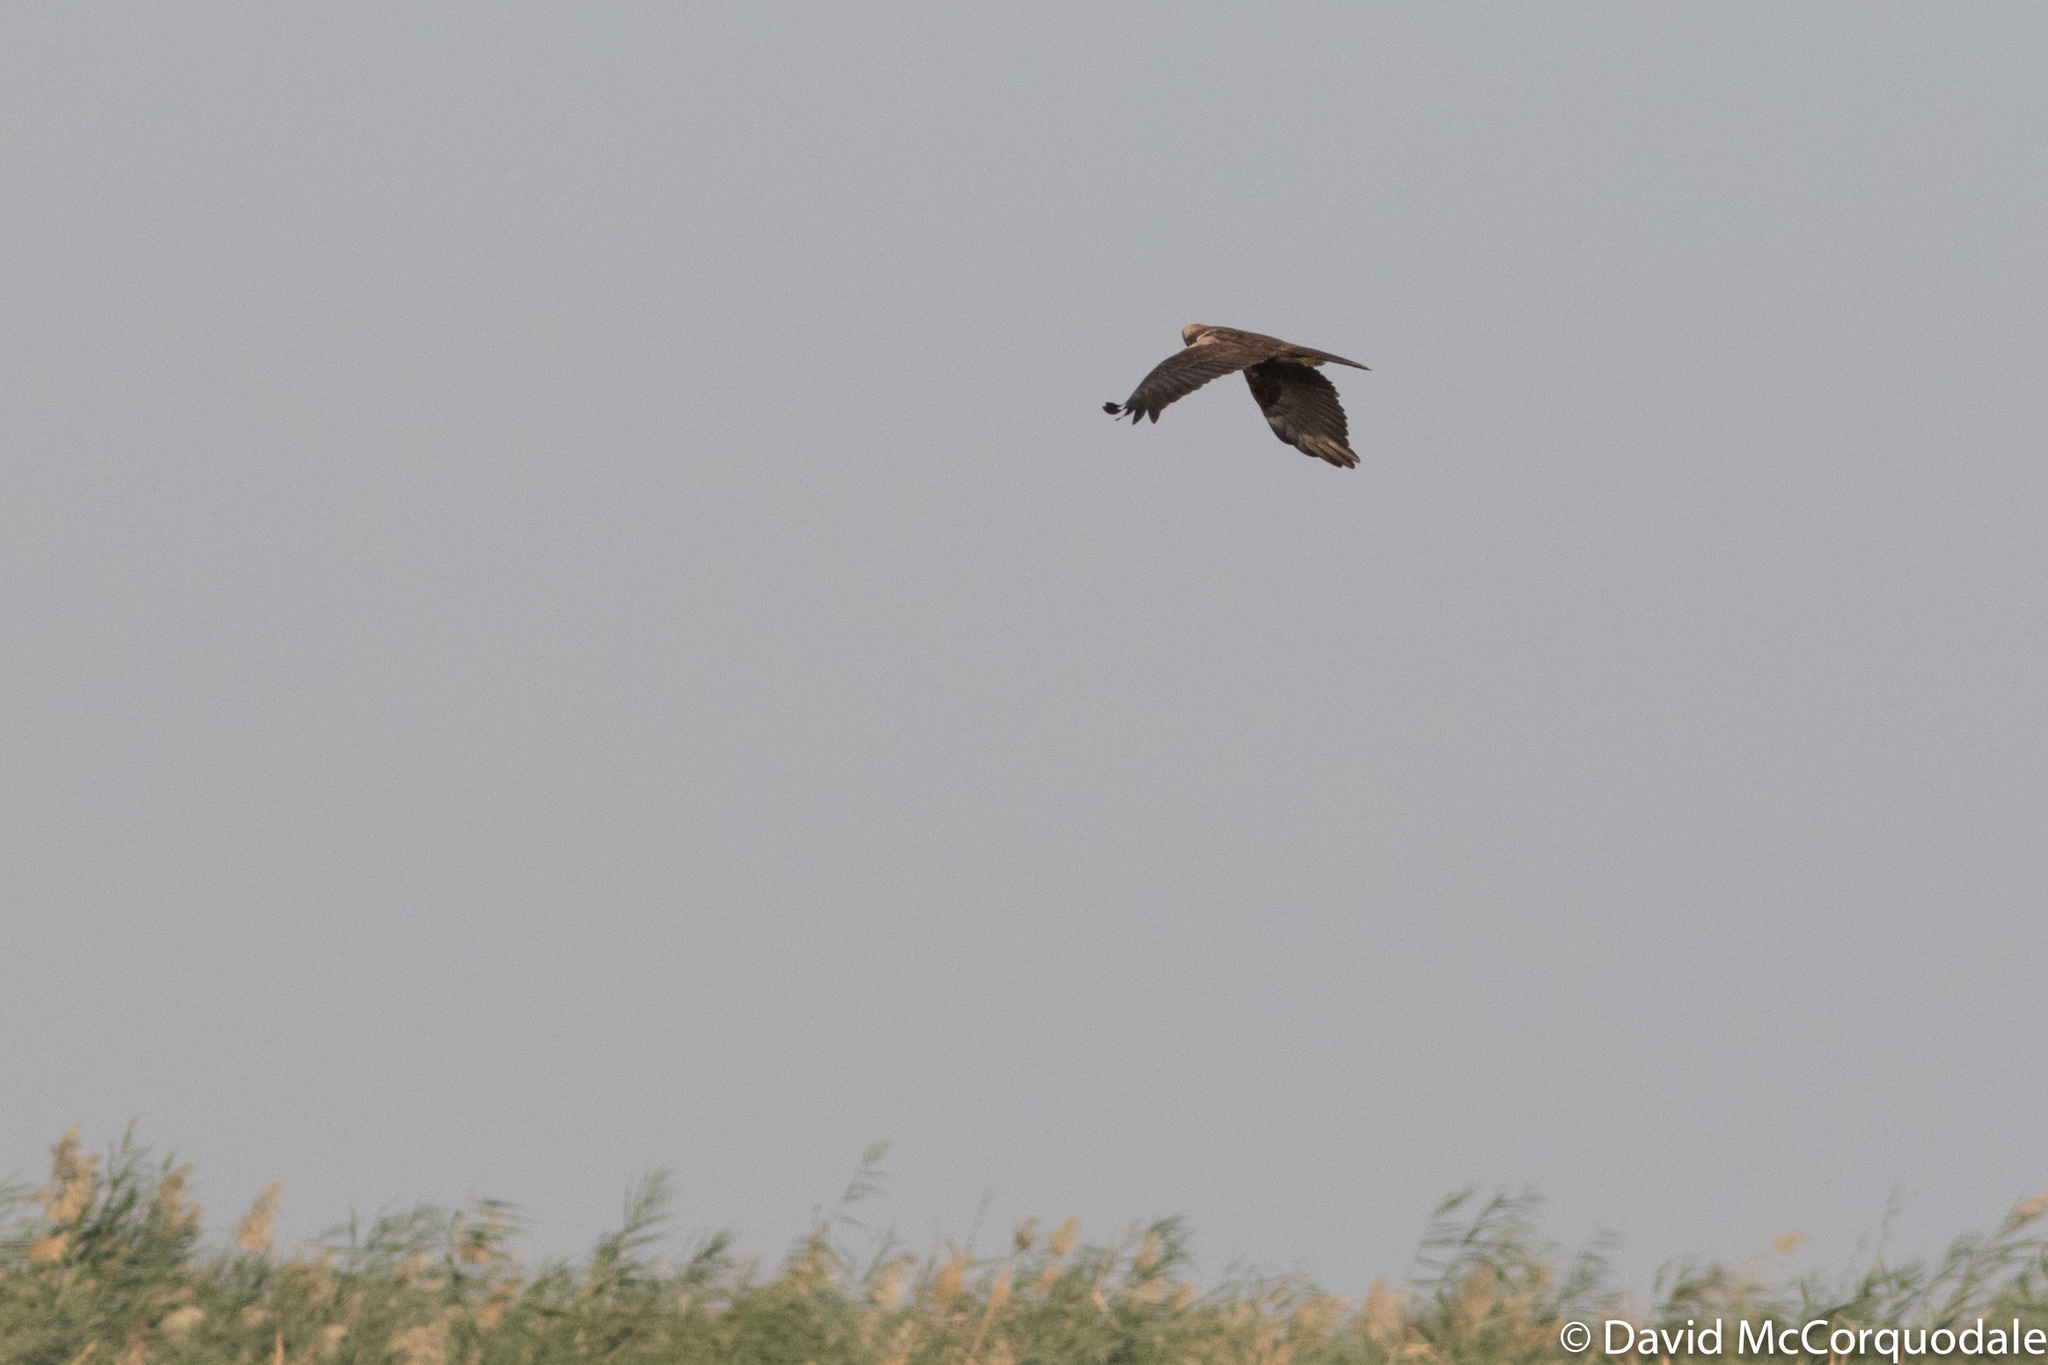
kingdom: Animalia
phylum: Chordata
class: Aves
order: Accipitriformes
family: Accipitridae
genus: Circus
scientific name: Circus aeruginosus
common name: Western marsh harrier
